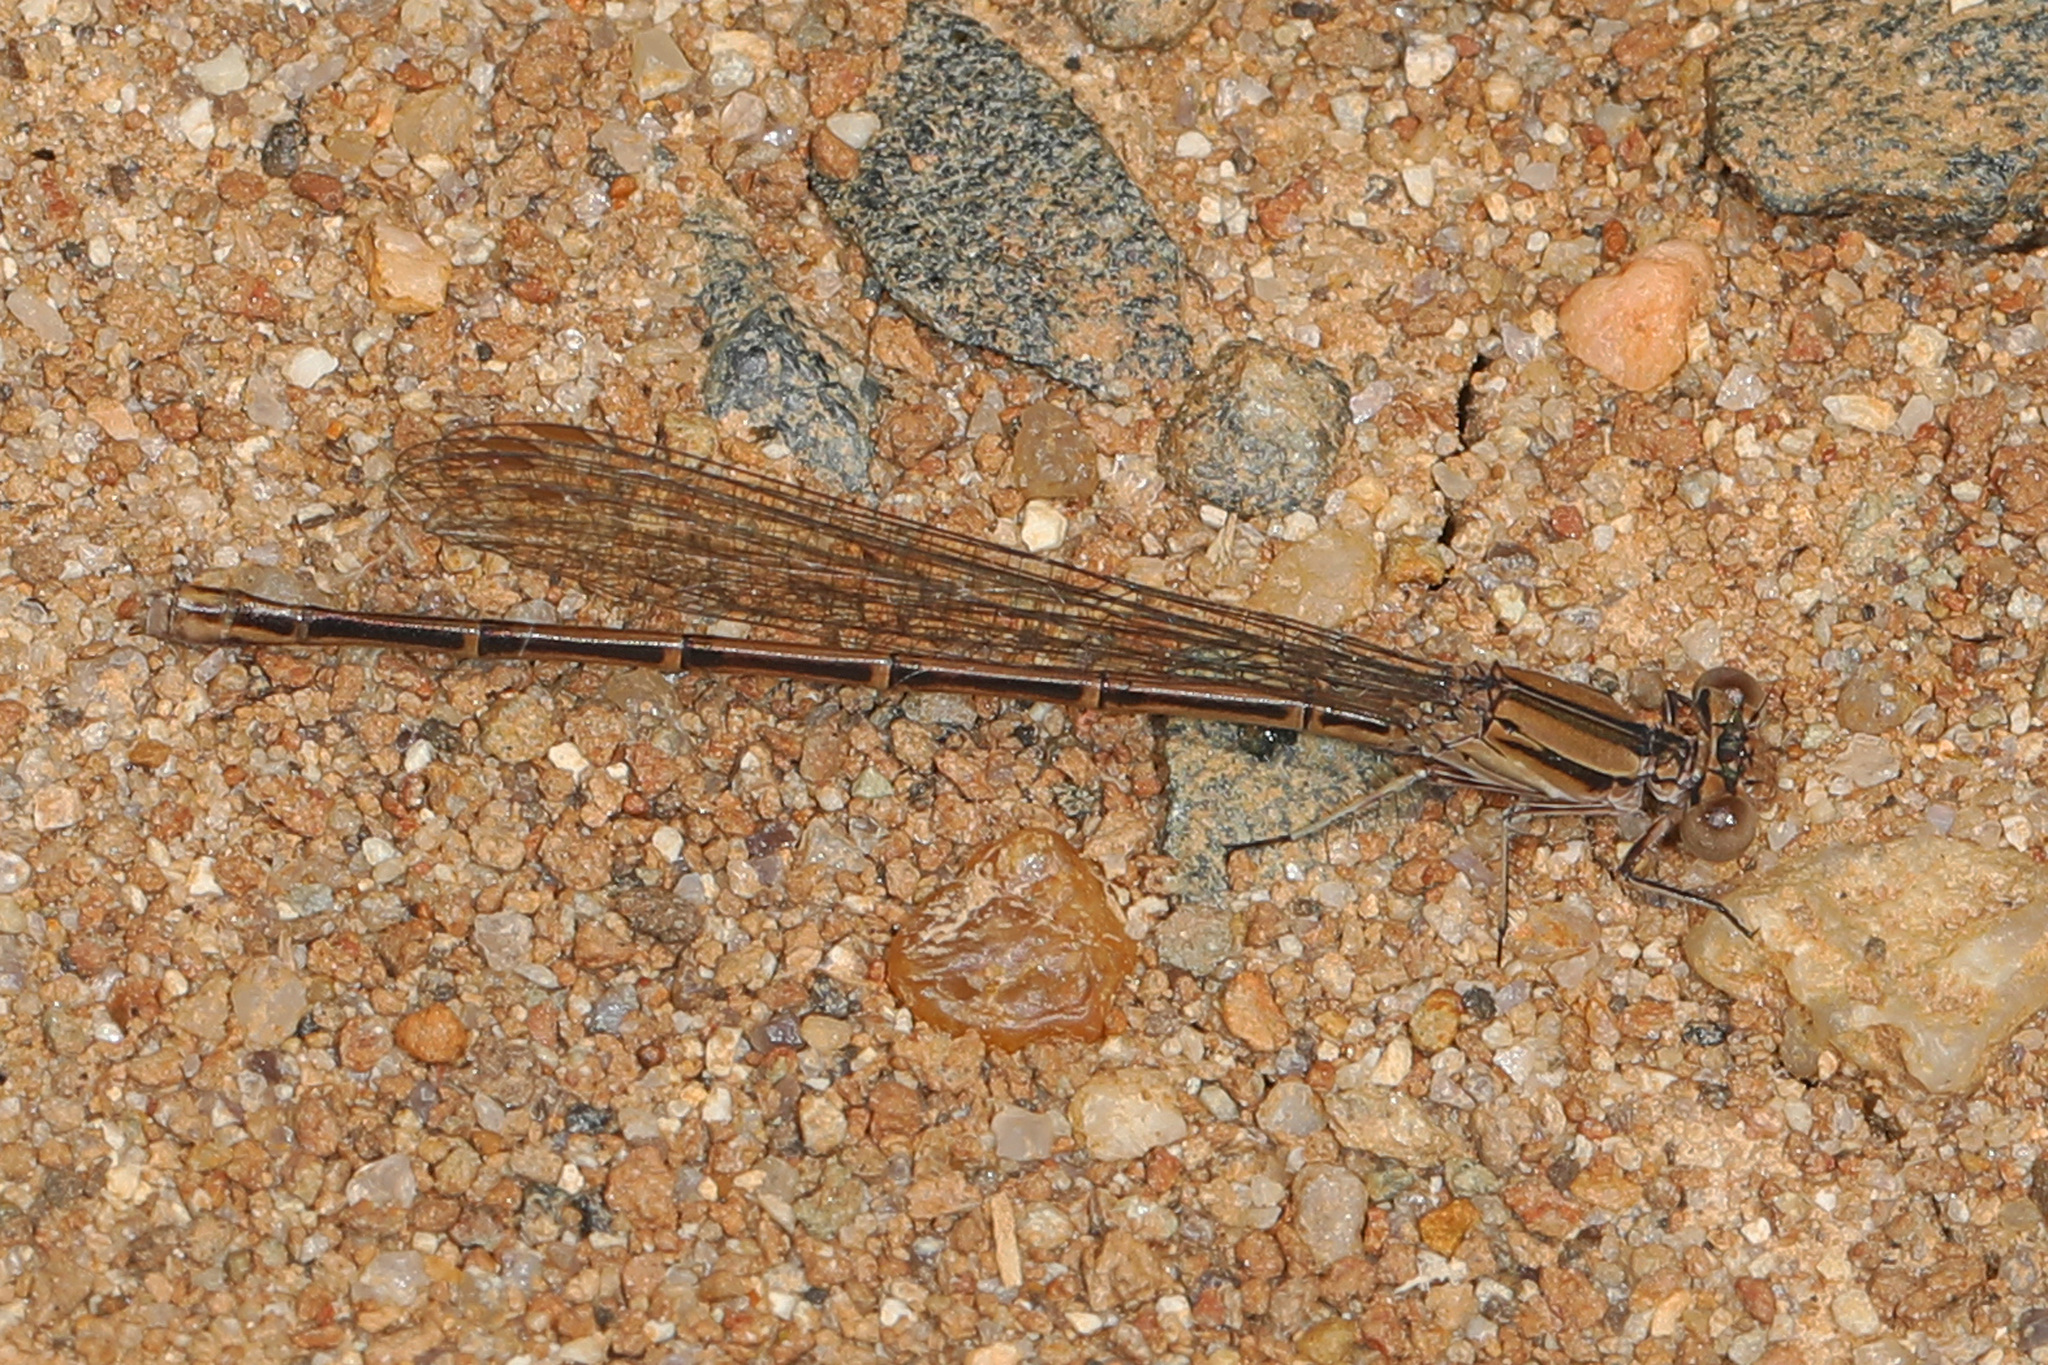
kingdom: Animalia
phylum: Arthropoda
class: Insecta
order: Odonata
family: Coenagrionidae
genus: Argia
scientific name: Argia fumipennis
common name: Variable dancer
